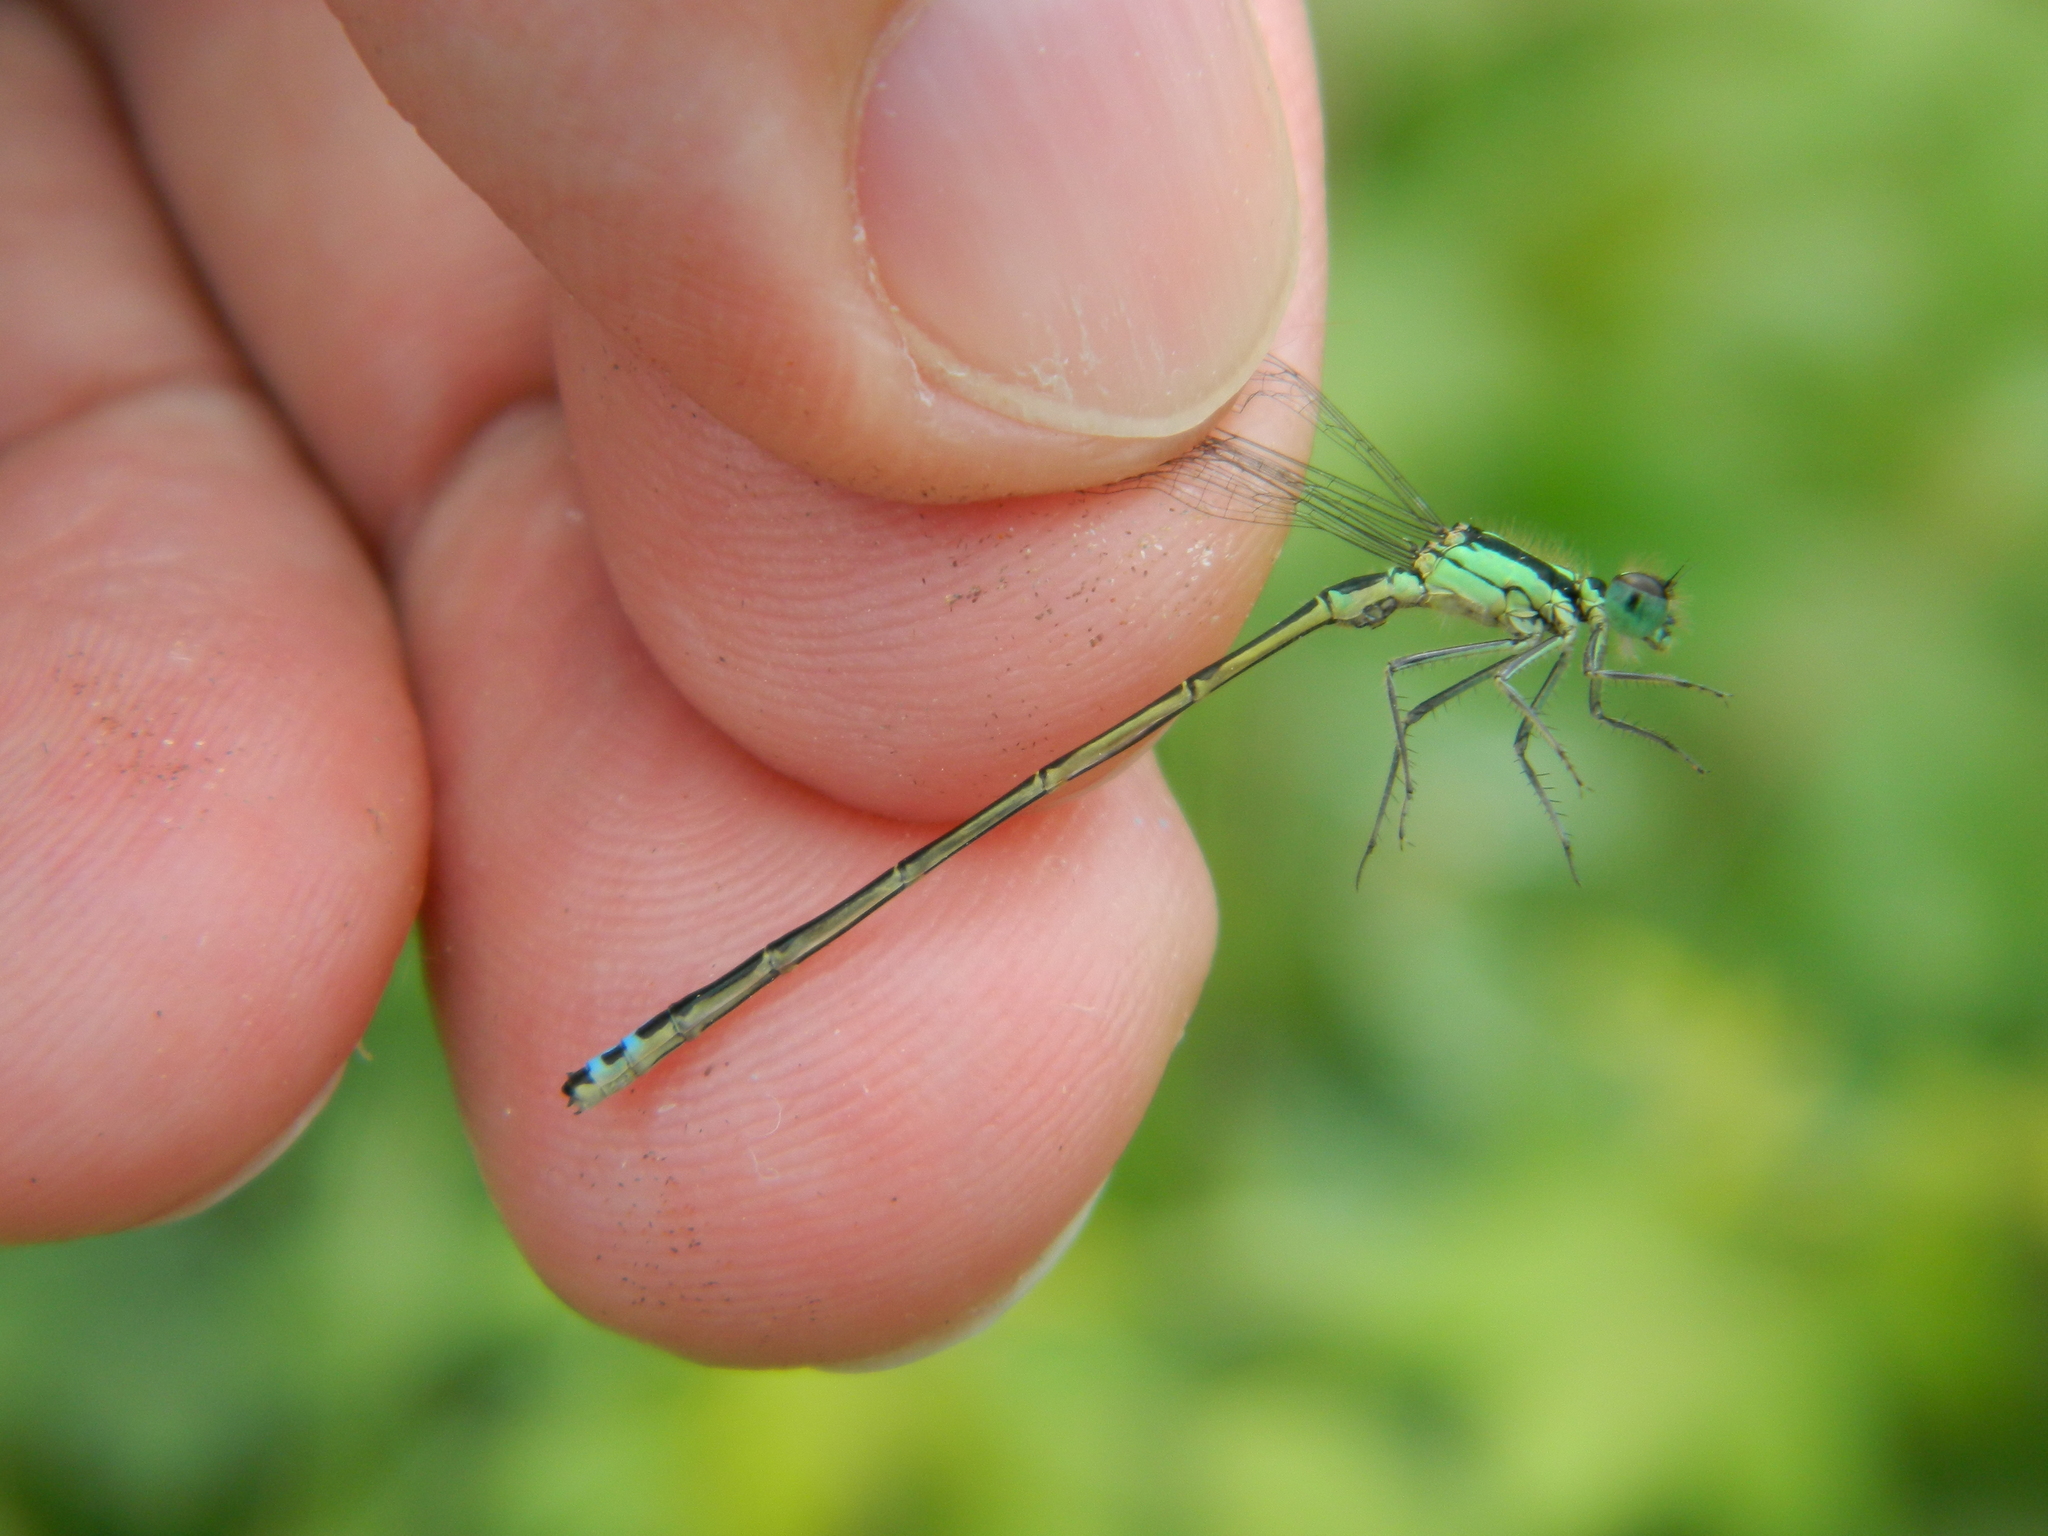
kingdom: Animalia
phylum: Arthropoda
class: Insecta
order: Odonata
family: Coenagrionidae
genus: Ischnura
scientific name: Ischnura verticalis
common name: Eastern forktail
